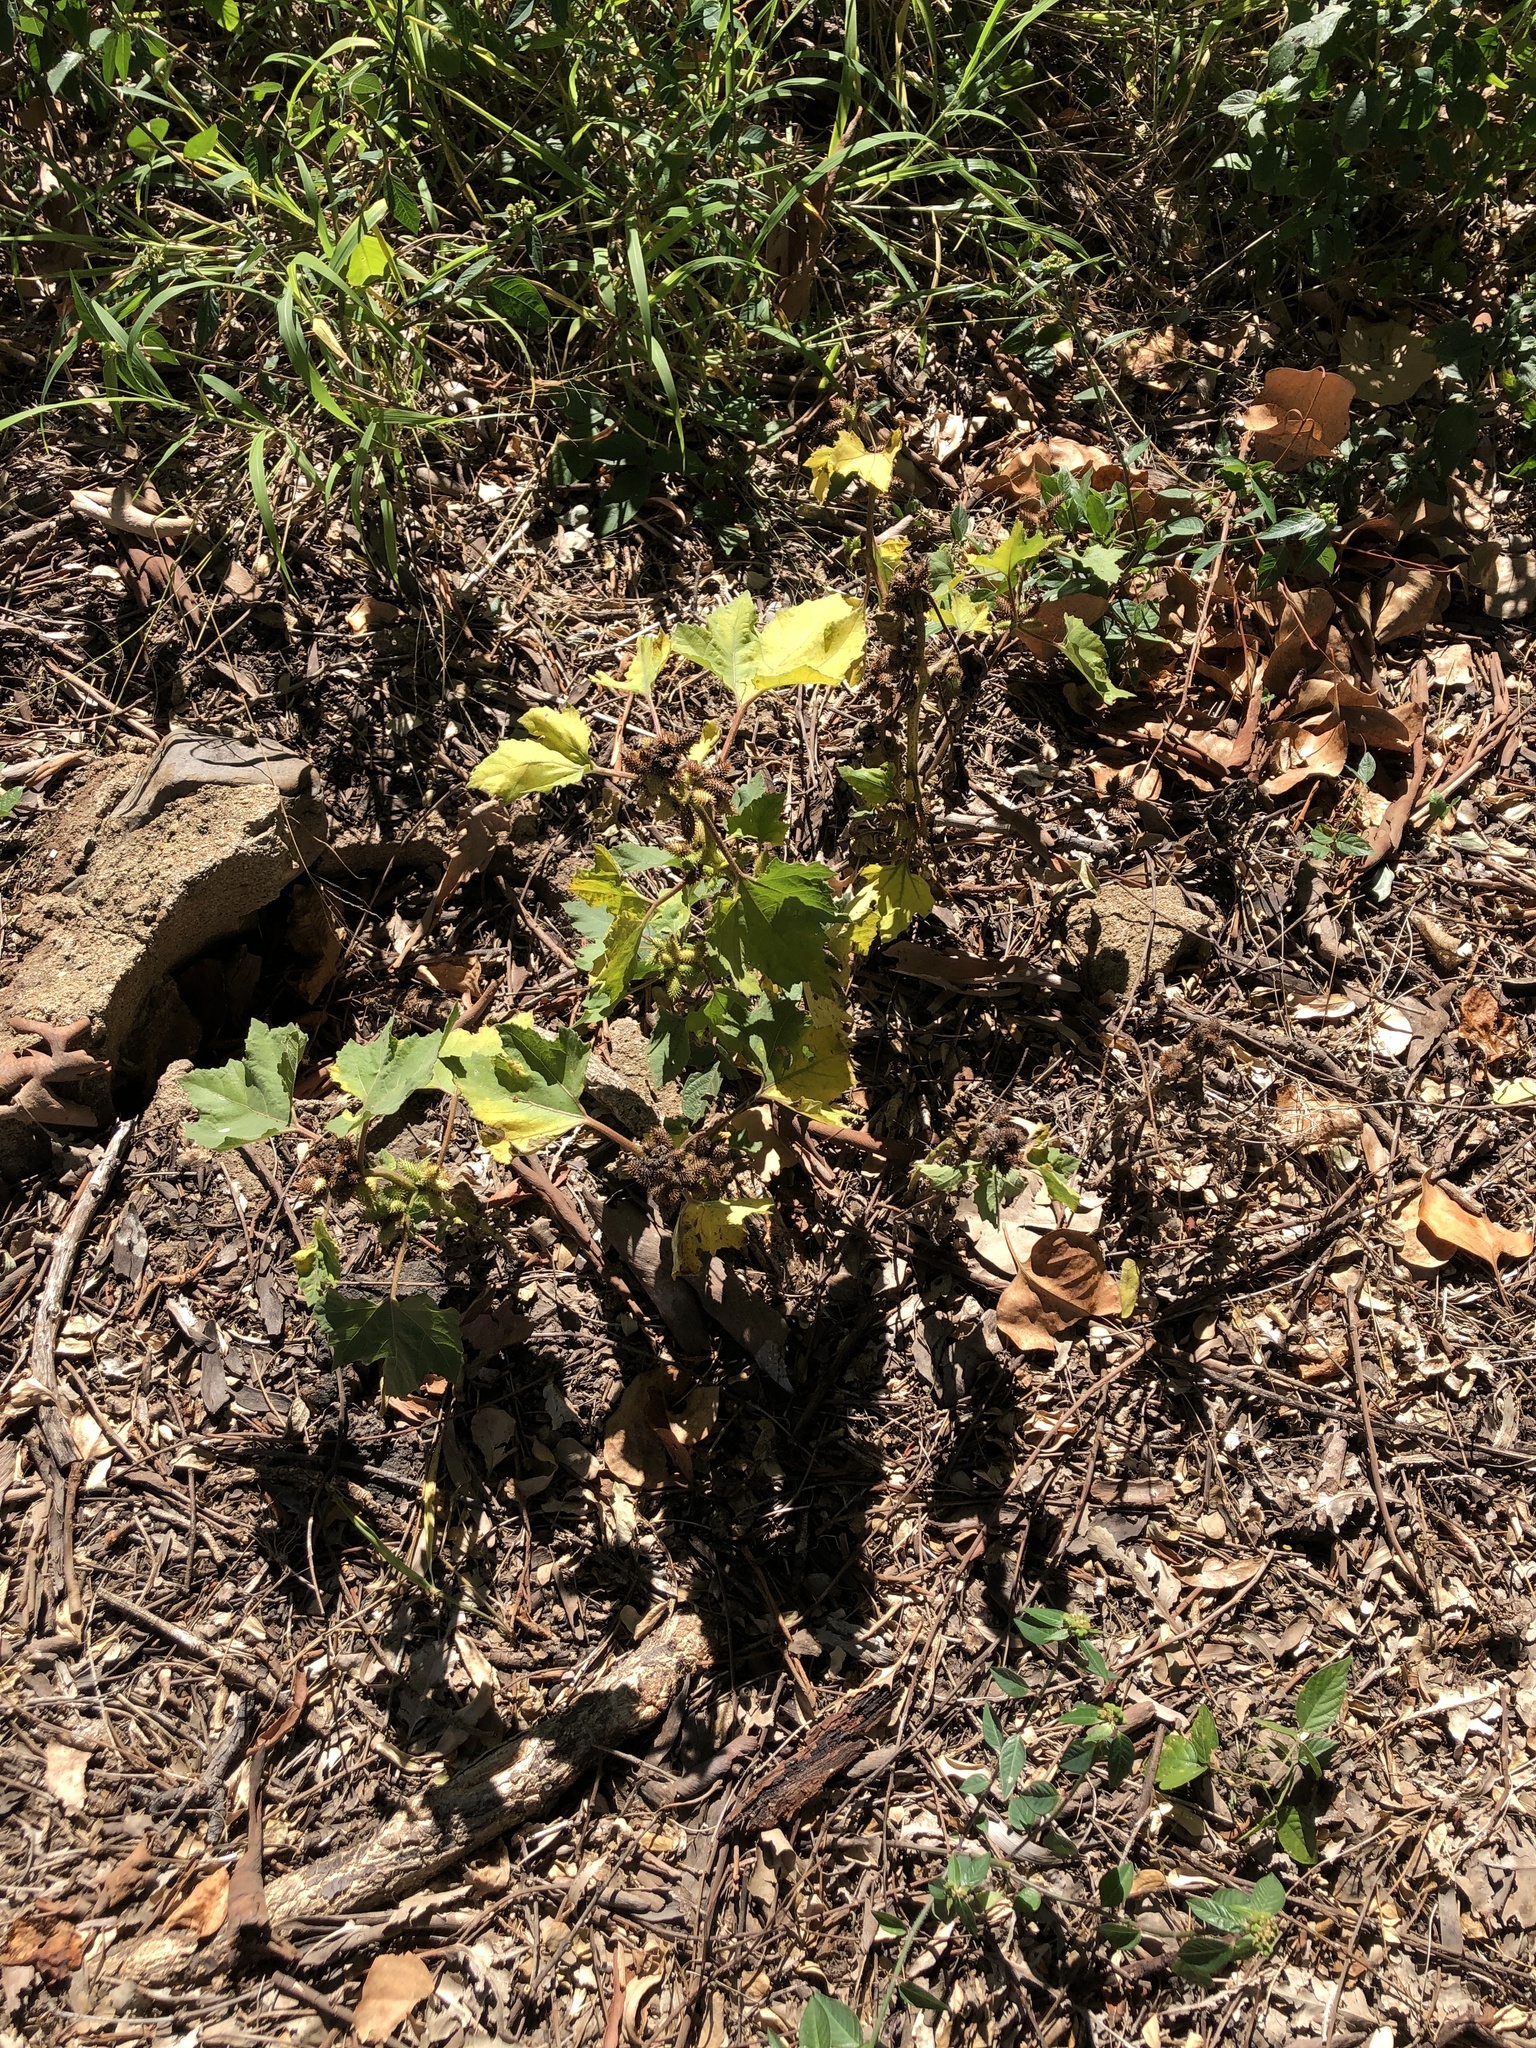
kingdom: Plantae
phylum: Tracheophyta
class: Magnoliopsida
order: Asterales
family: Asteraceae
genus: Xanthium
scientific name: Xanthium strumarium
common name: Rough cocklebur
